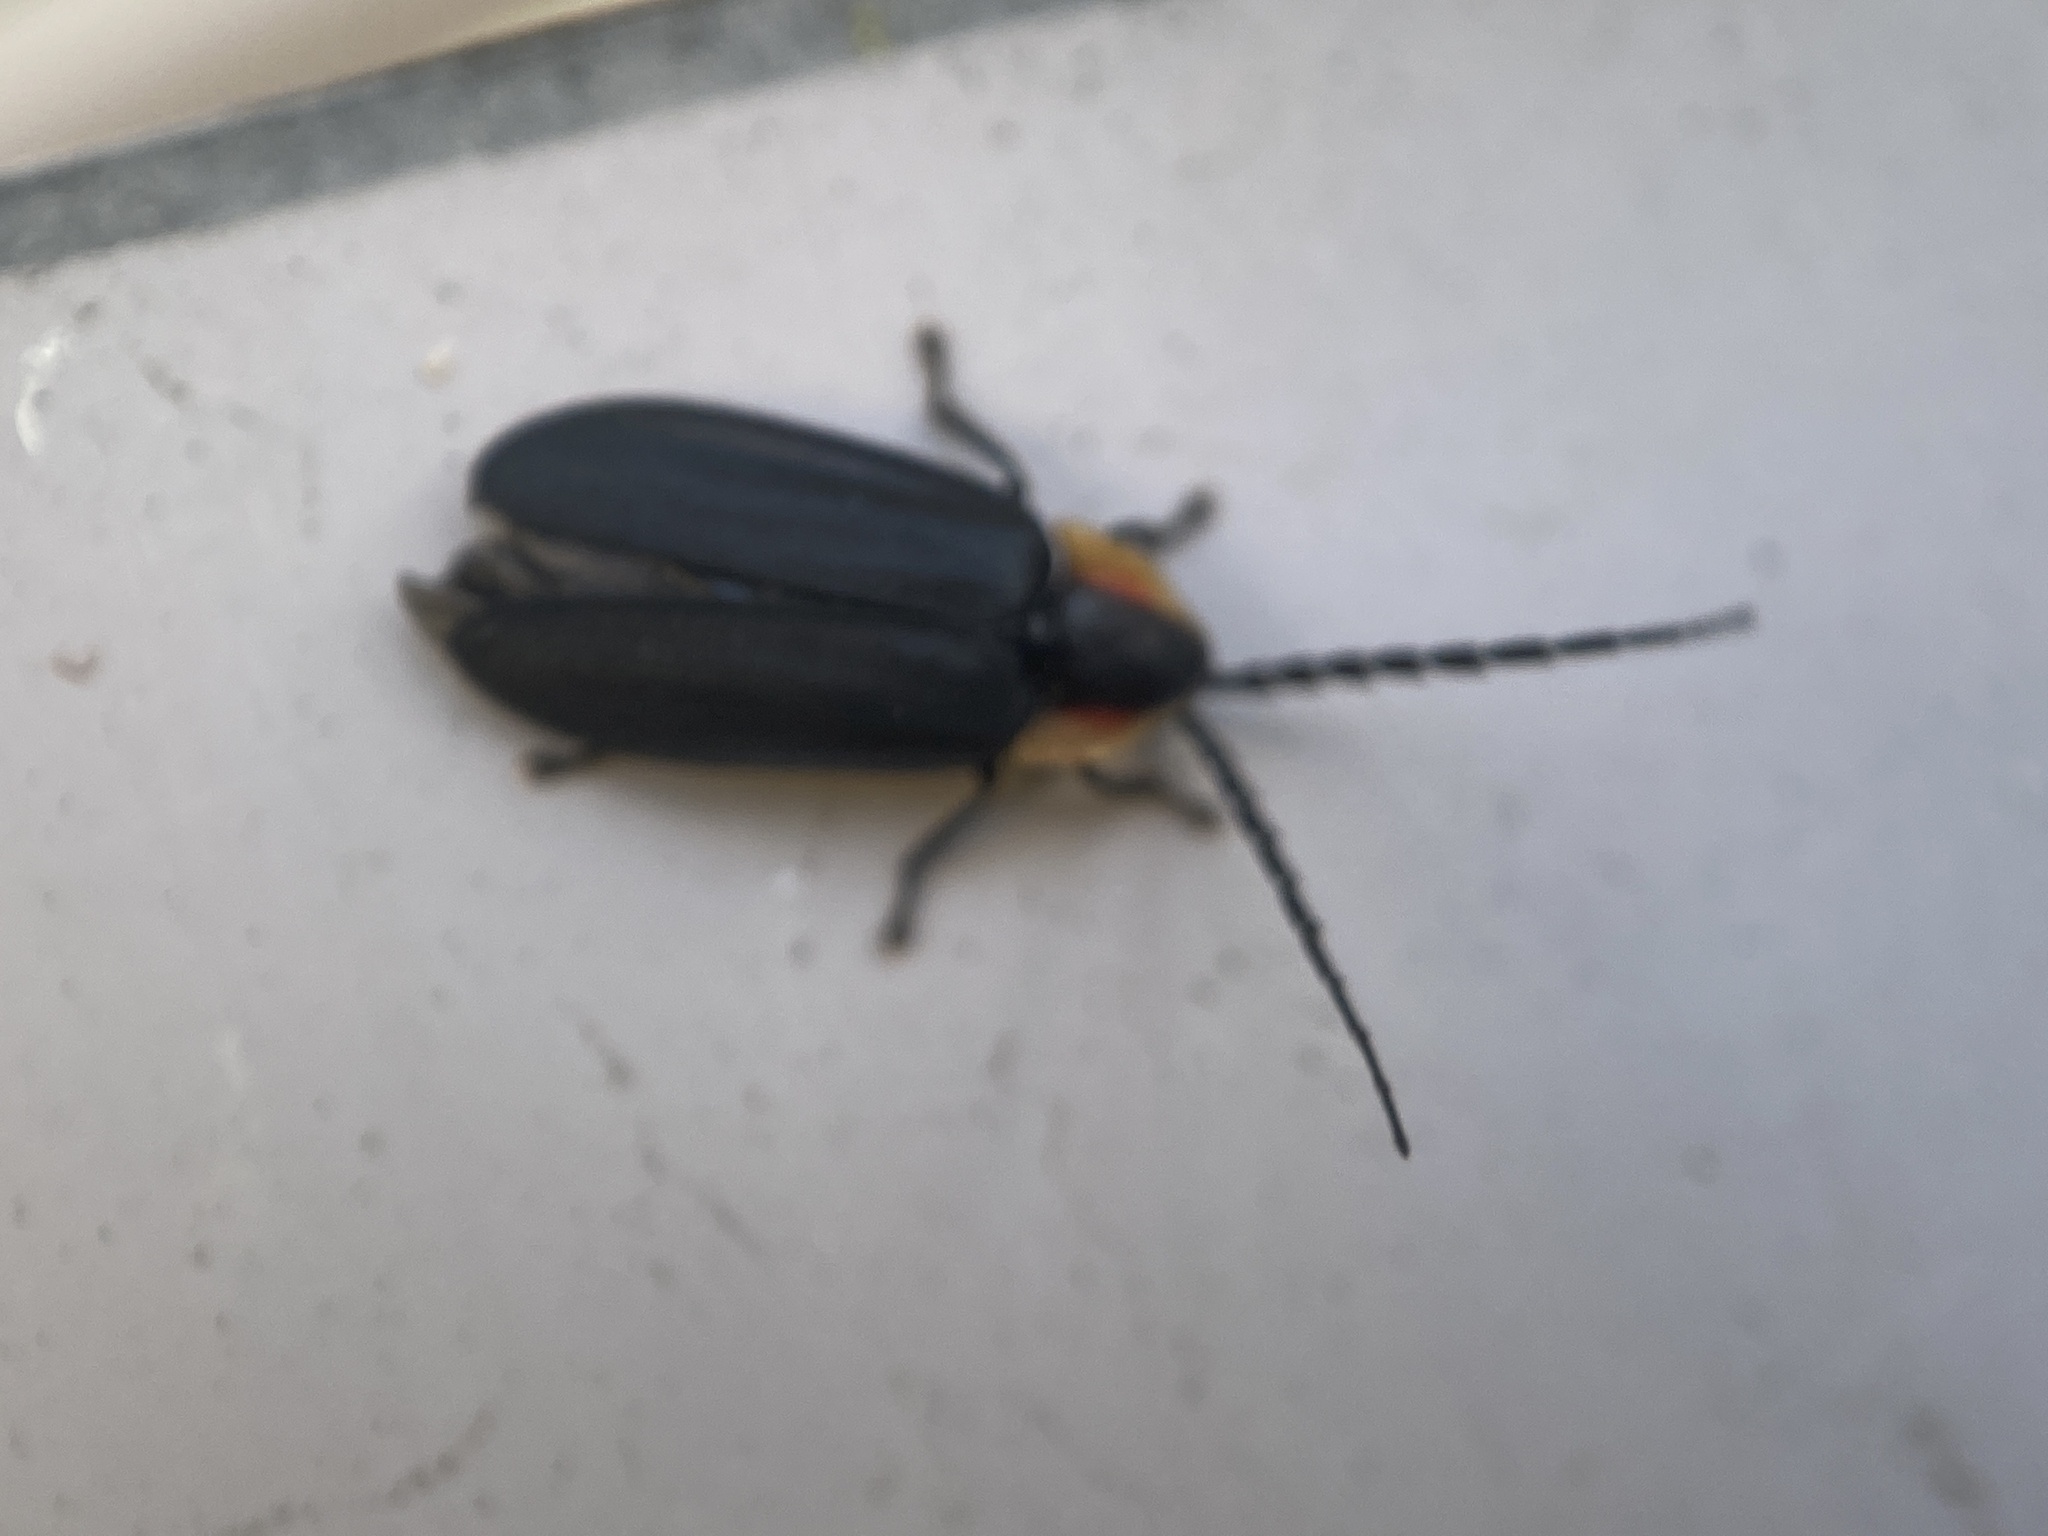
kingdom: Animalia
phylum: Arthropoda
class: Insecta
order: Coleoptera
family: Lampyridae
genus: Lucidota
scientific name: Lucidota atra
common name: Black firefly
